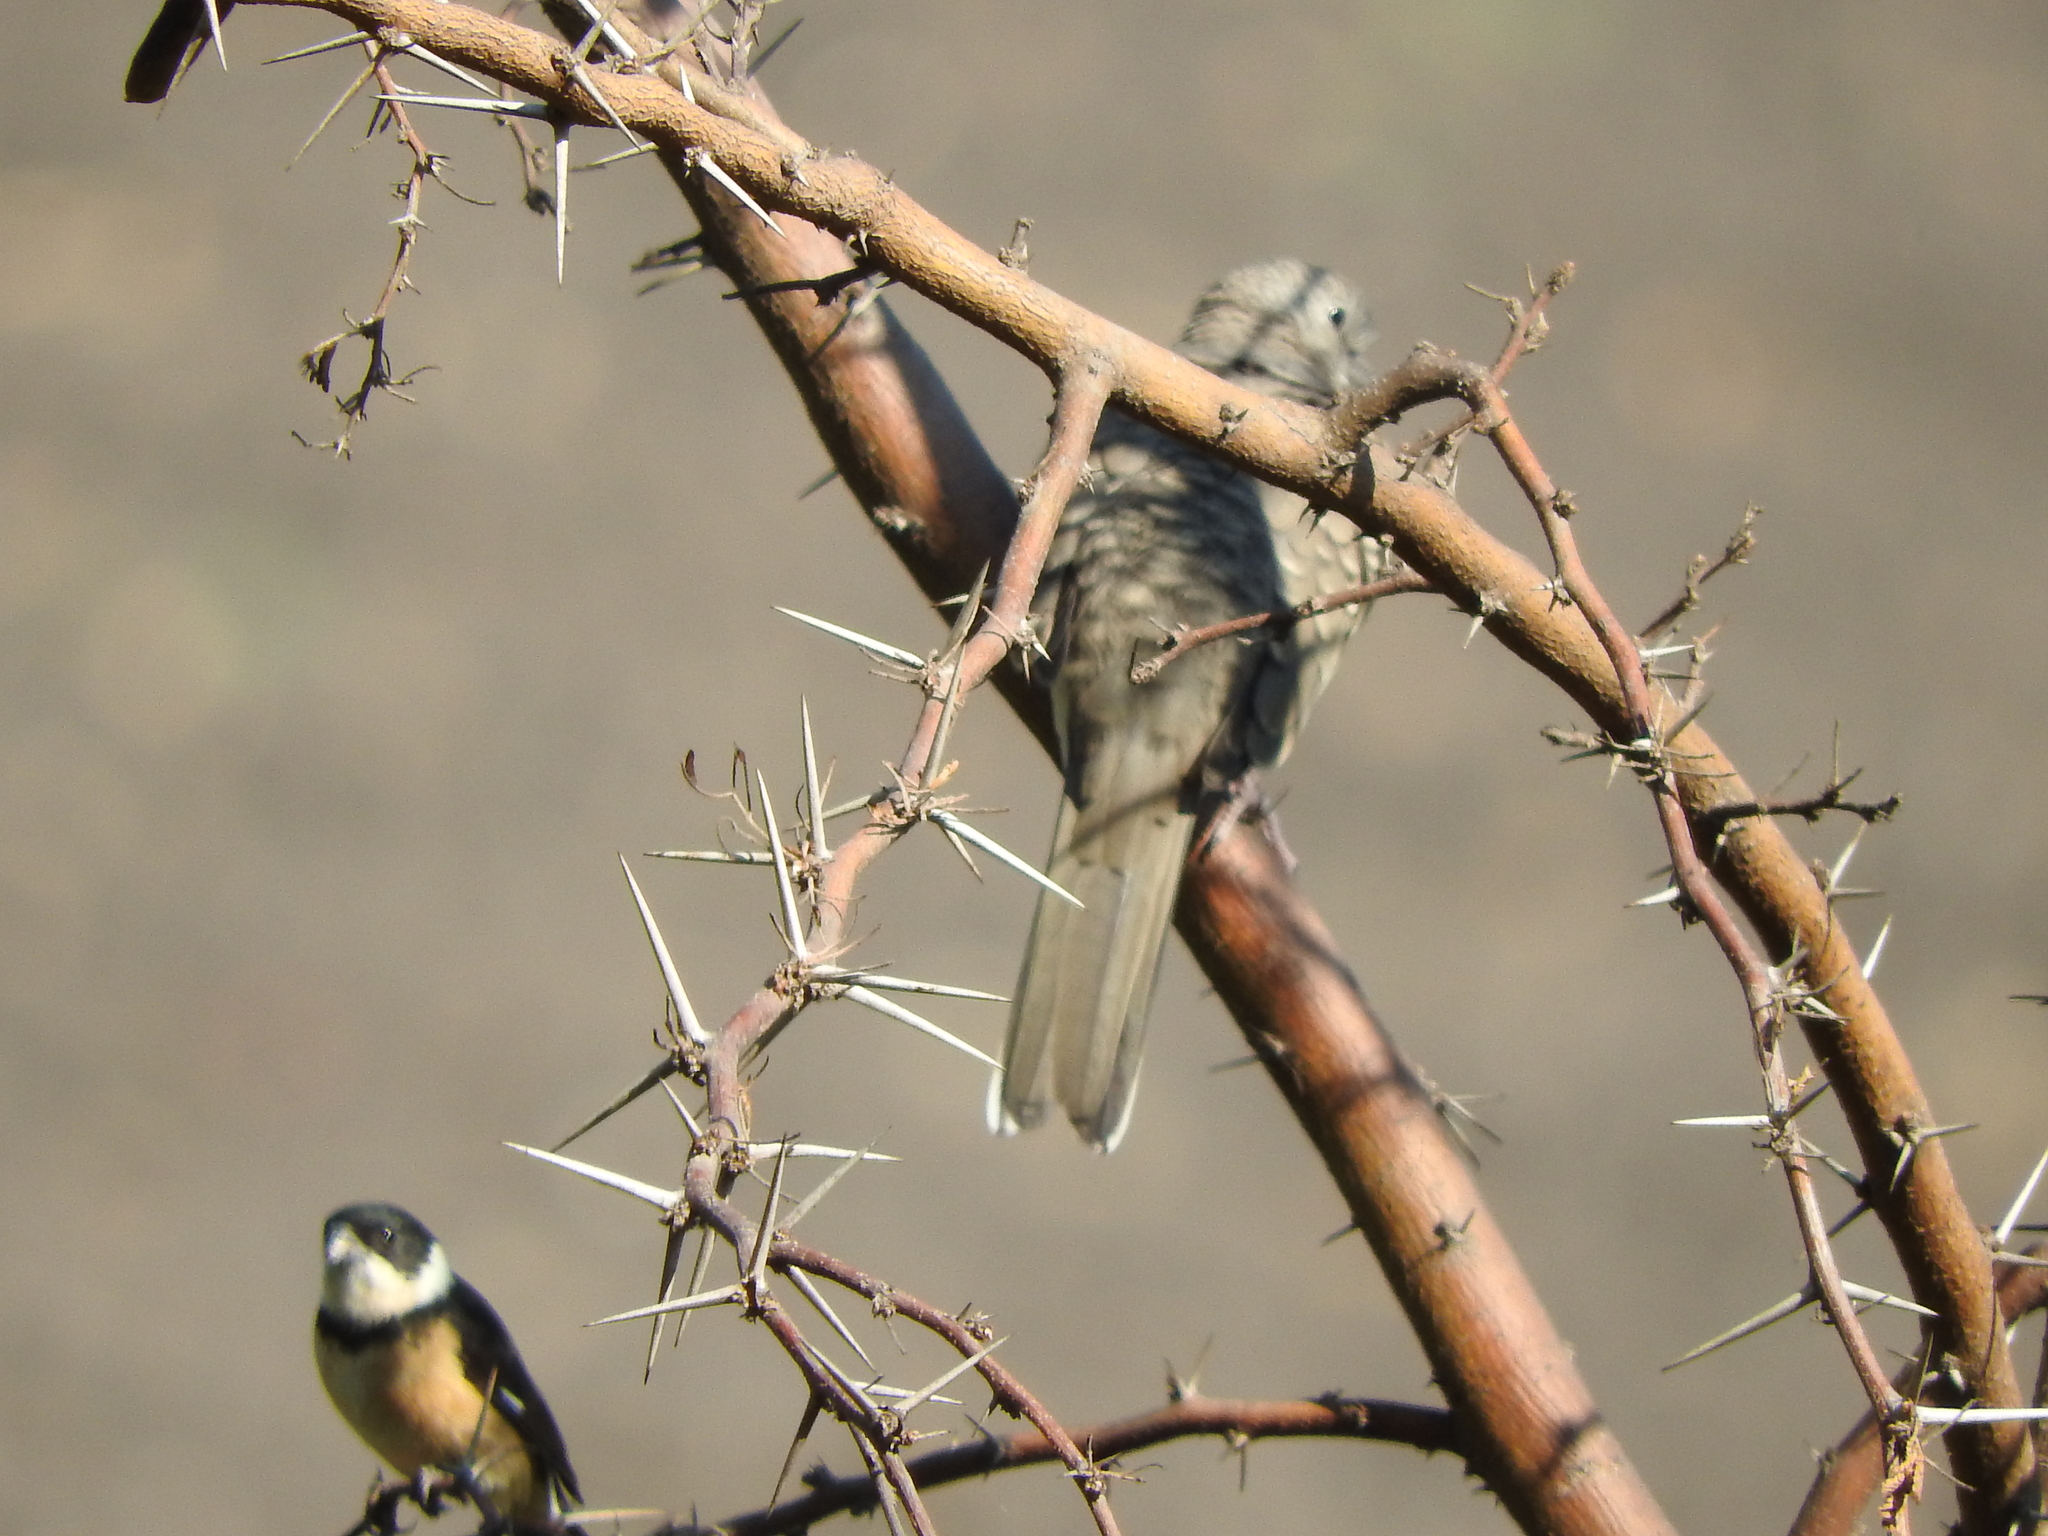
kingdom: Animalia
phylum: Chordata
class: Aves
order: Columbiformes
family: Columbidae
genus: Columbina
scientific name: Columbina inca
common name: Inca dove
